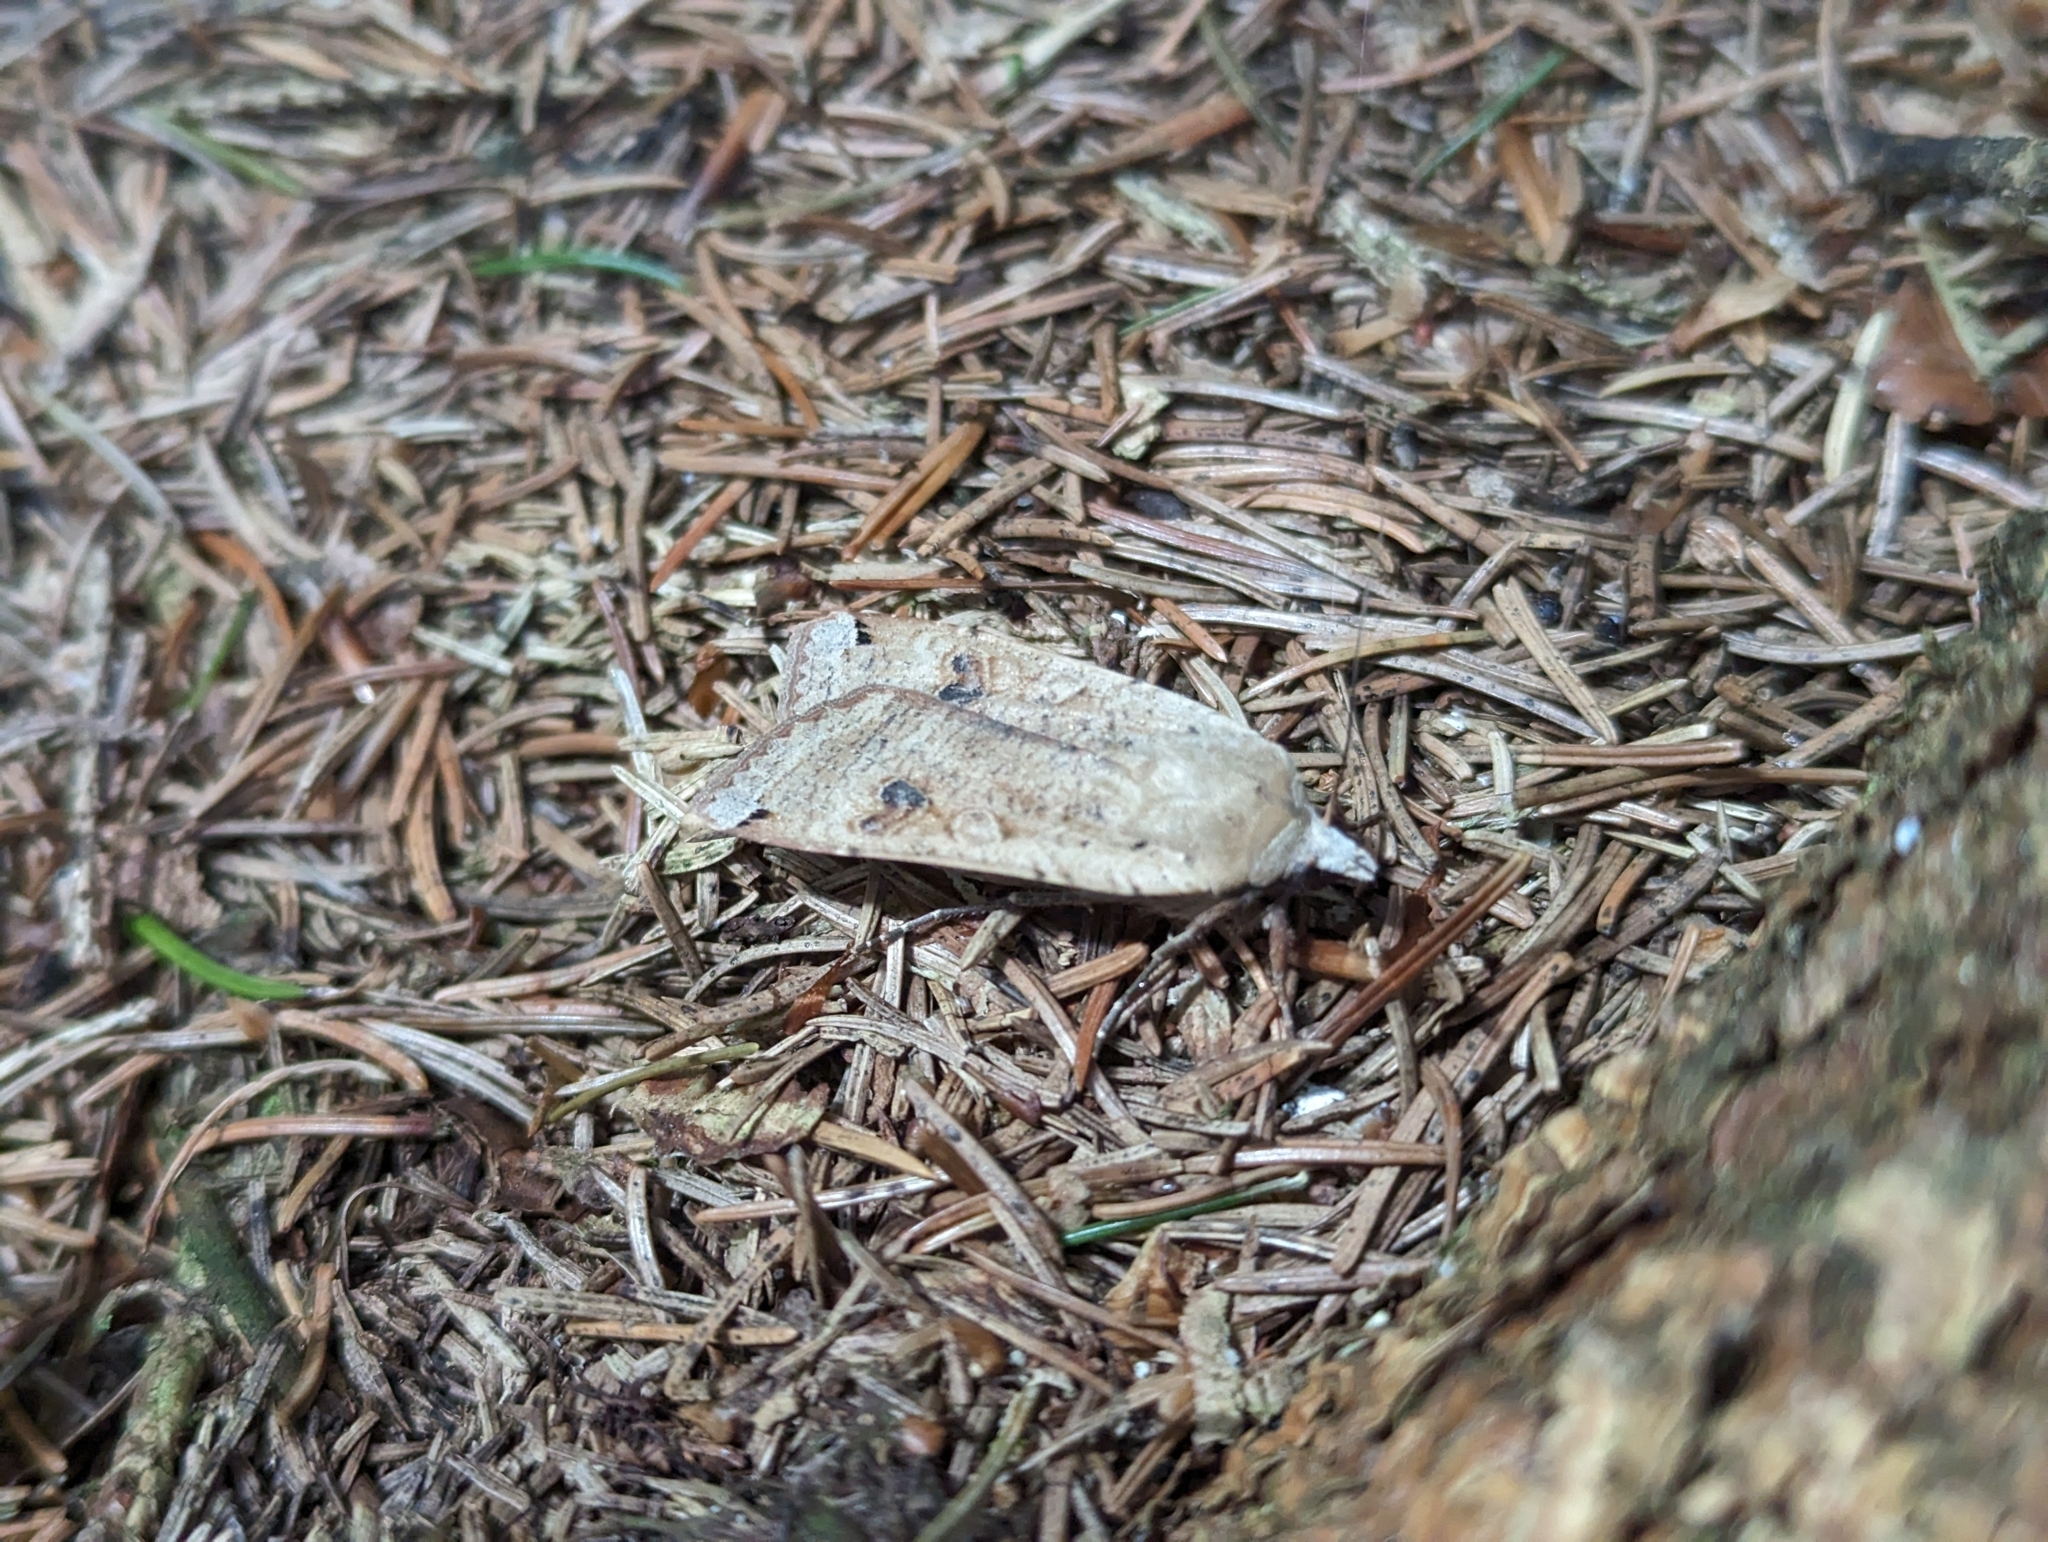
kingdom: Animalia
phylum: Arthropoda
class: Insecta
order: Lepidoptera
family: Noctuidae
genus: Noctua
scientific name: Noctua pronuba
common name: Large yellow underwing
